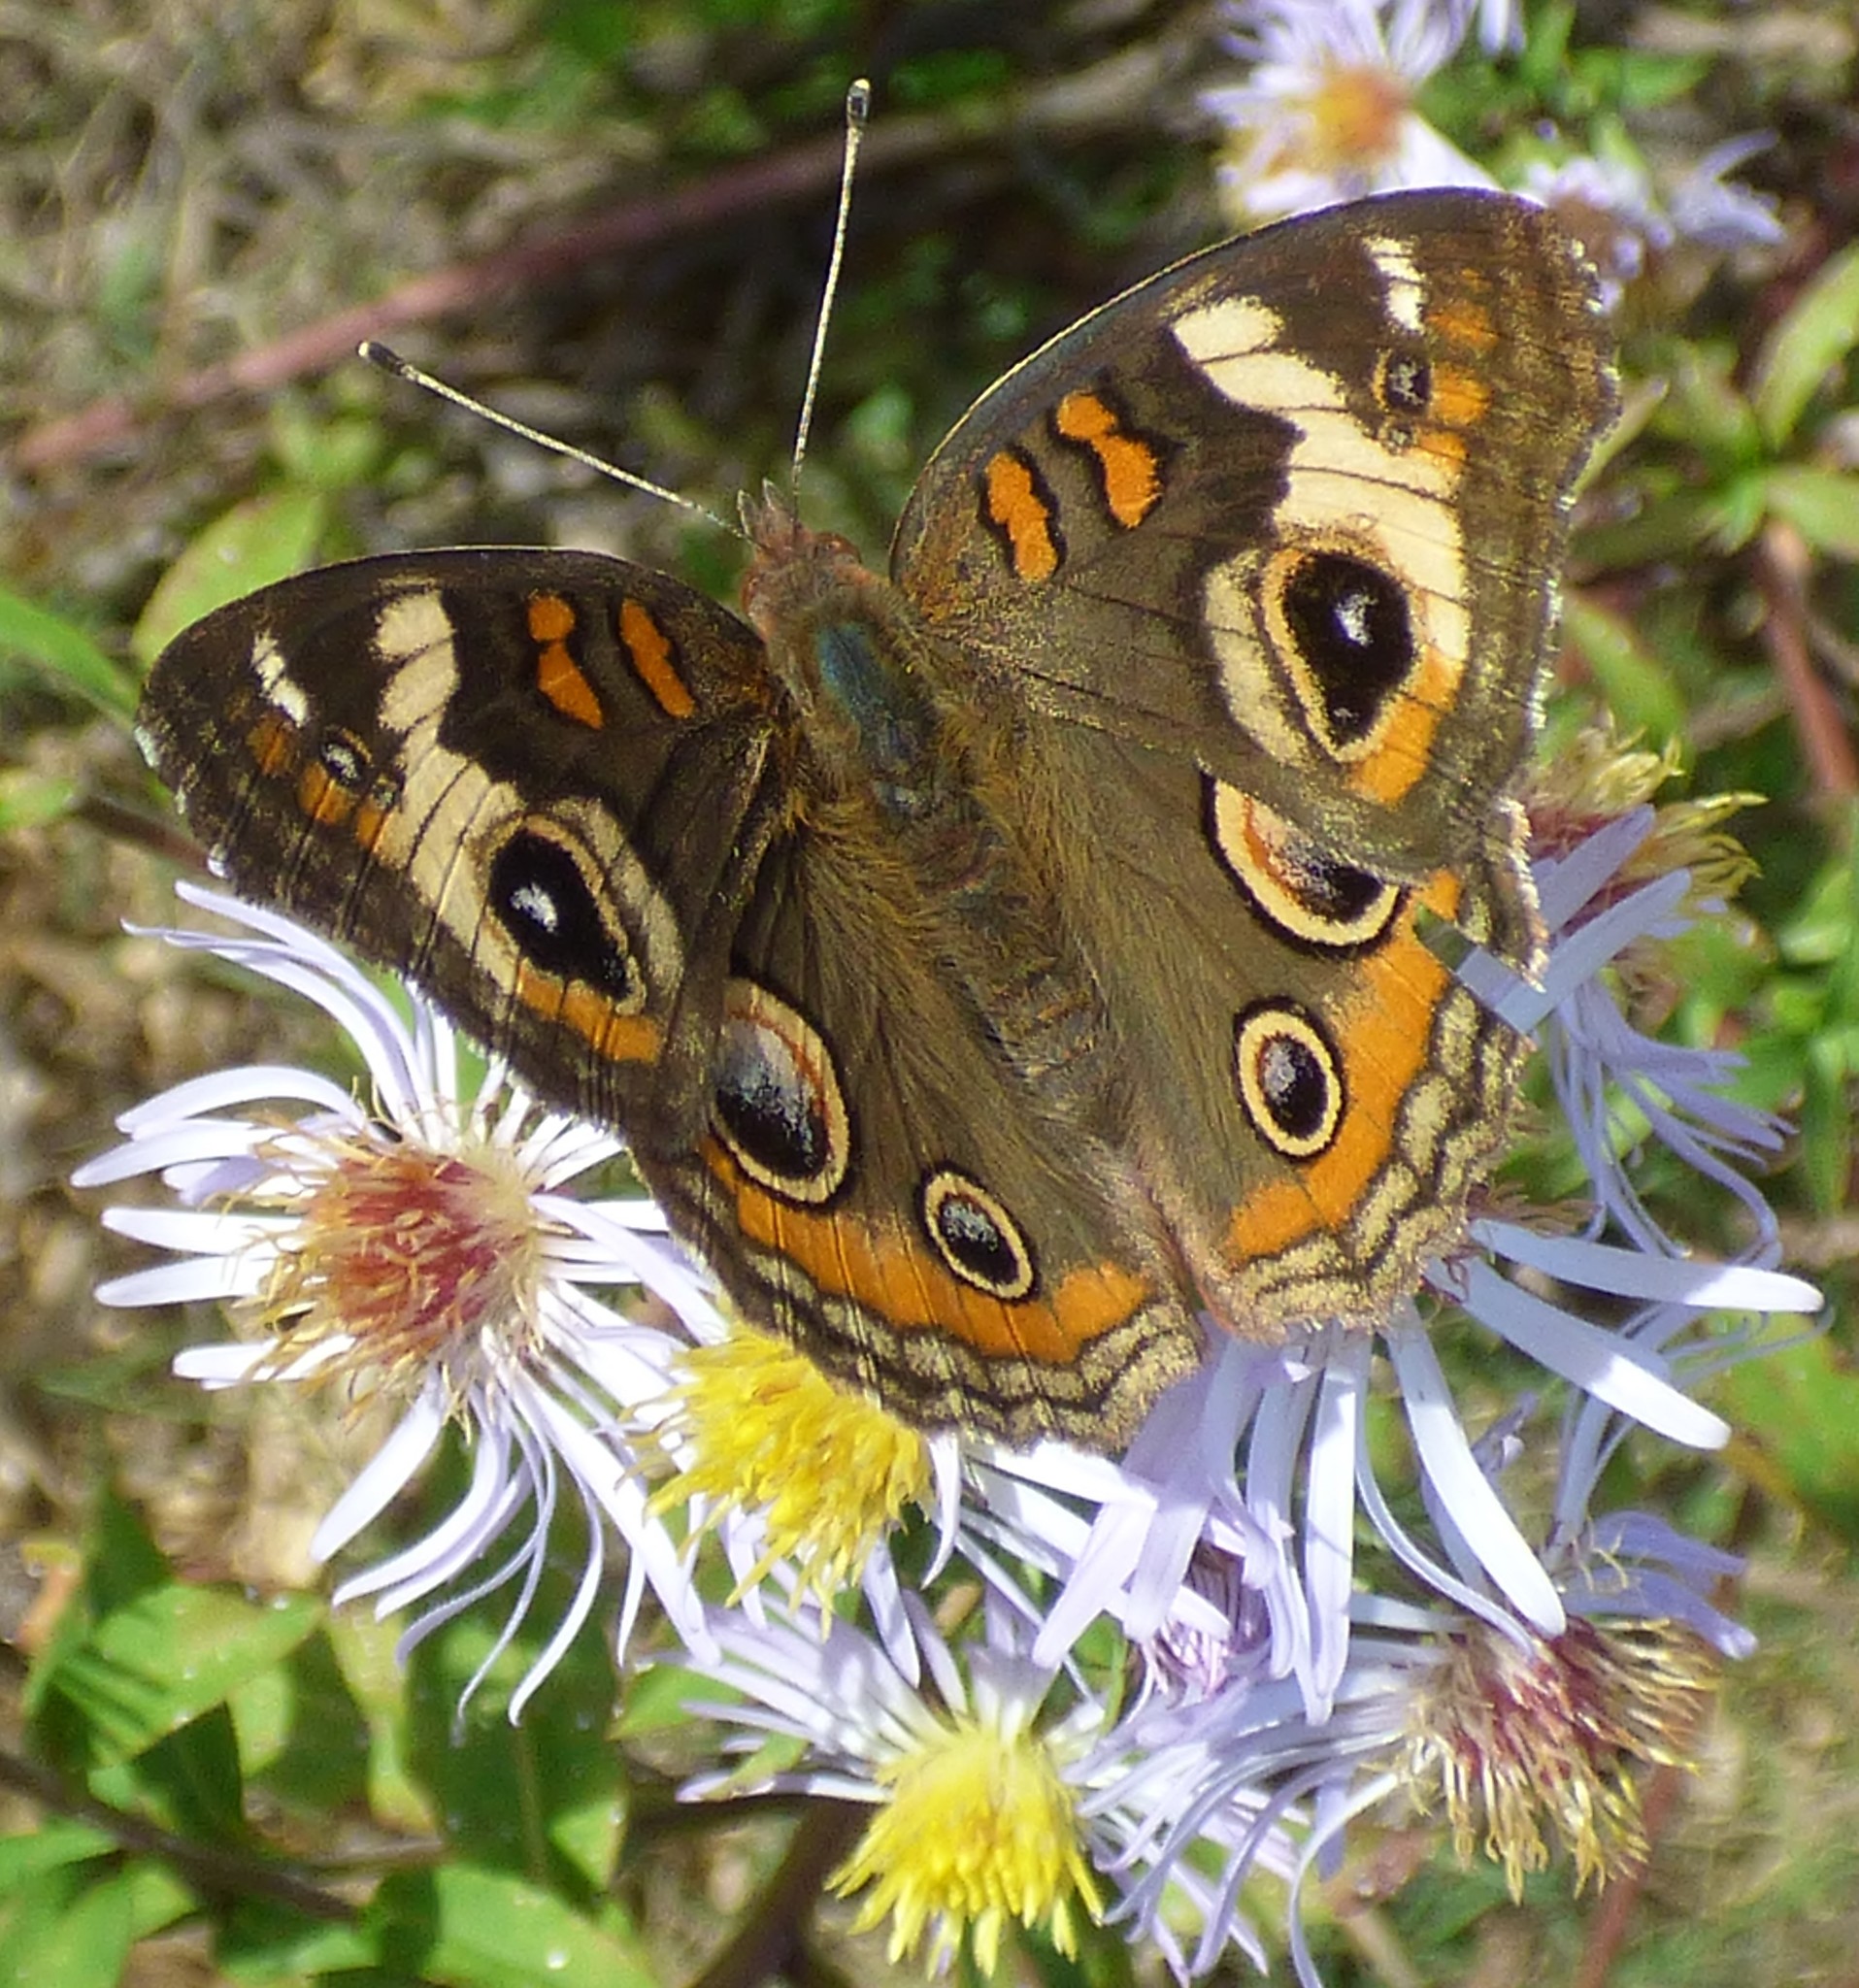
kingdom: Animalia
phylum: Arthropoda
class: Insecta
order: Lepidoptera
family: Nymphalidae
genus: Junonia
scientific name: Junonia coenia
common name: Common buckeye
